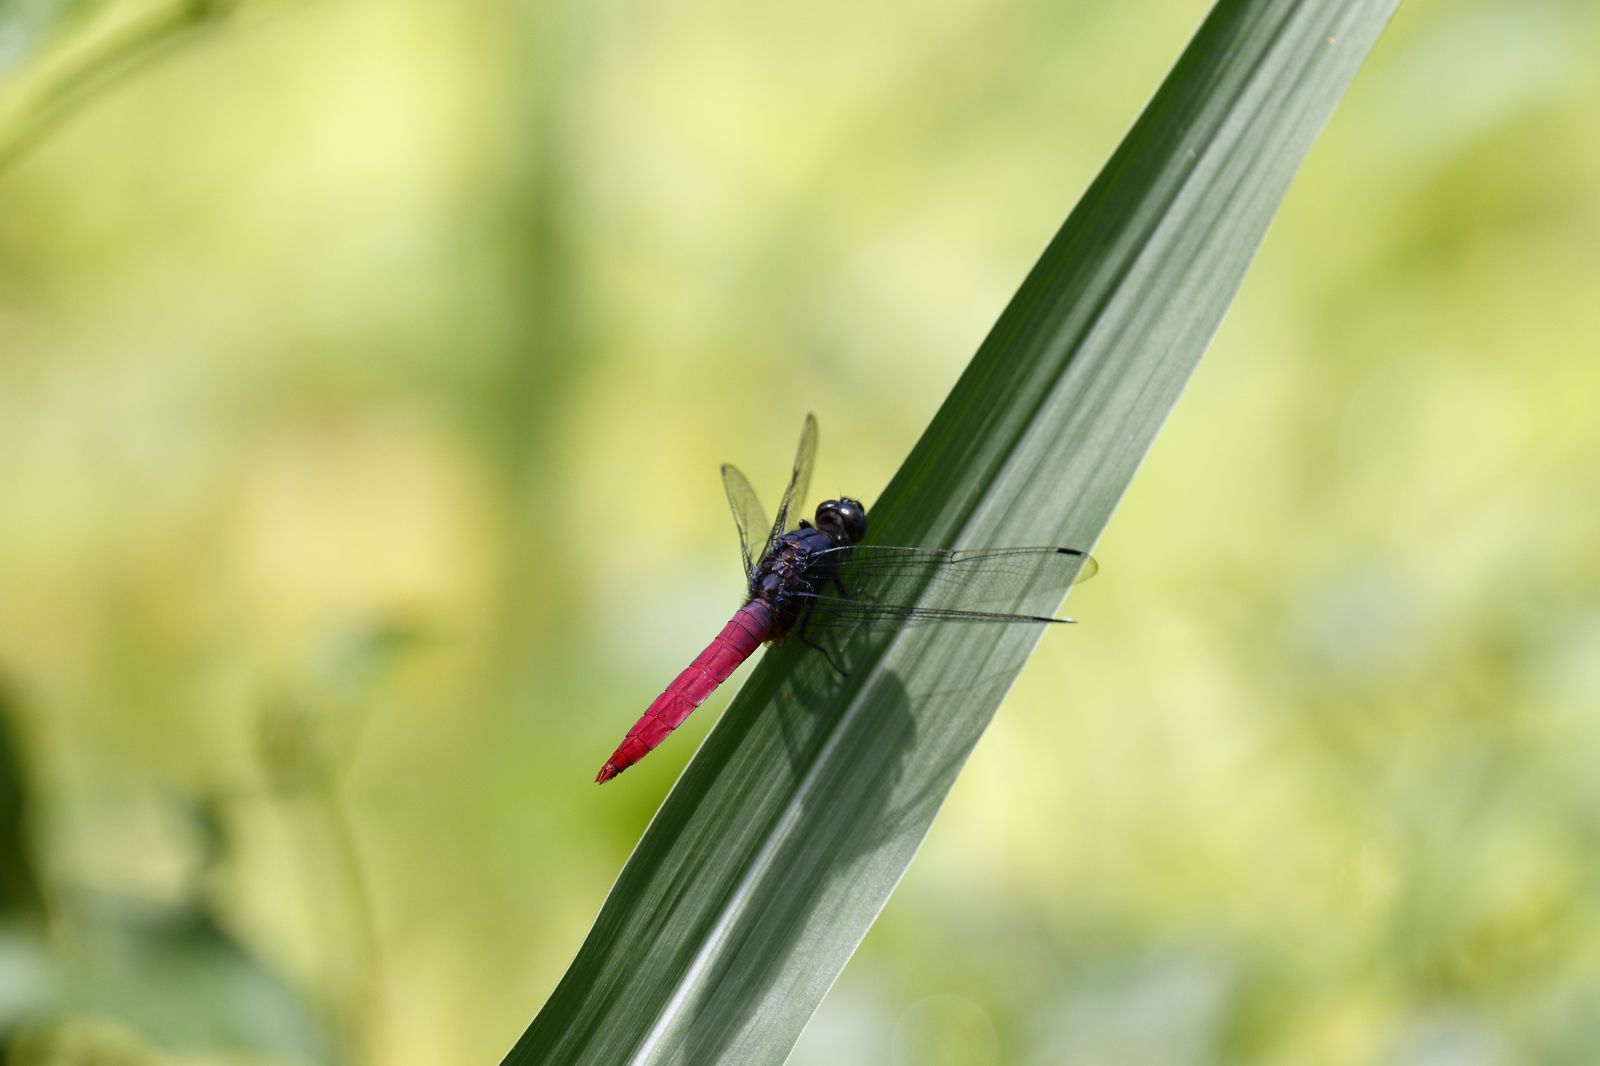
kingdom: Animalia
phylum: Arthropoda
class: Insecta
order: Odonata
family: Libellulidae
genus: Orthetrum
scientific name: Orthetrum pruinosum
